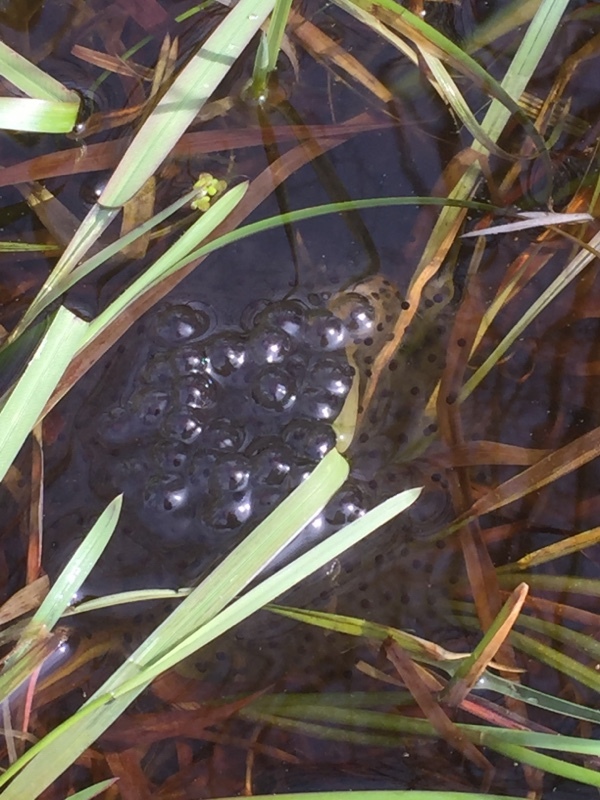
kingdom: Animalia
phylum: Chordata
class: Amphibia
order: Anura
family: Ranidae
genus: Rana
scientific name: Rana arvalis
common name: Moor frog
